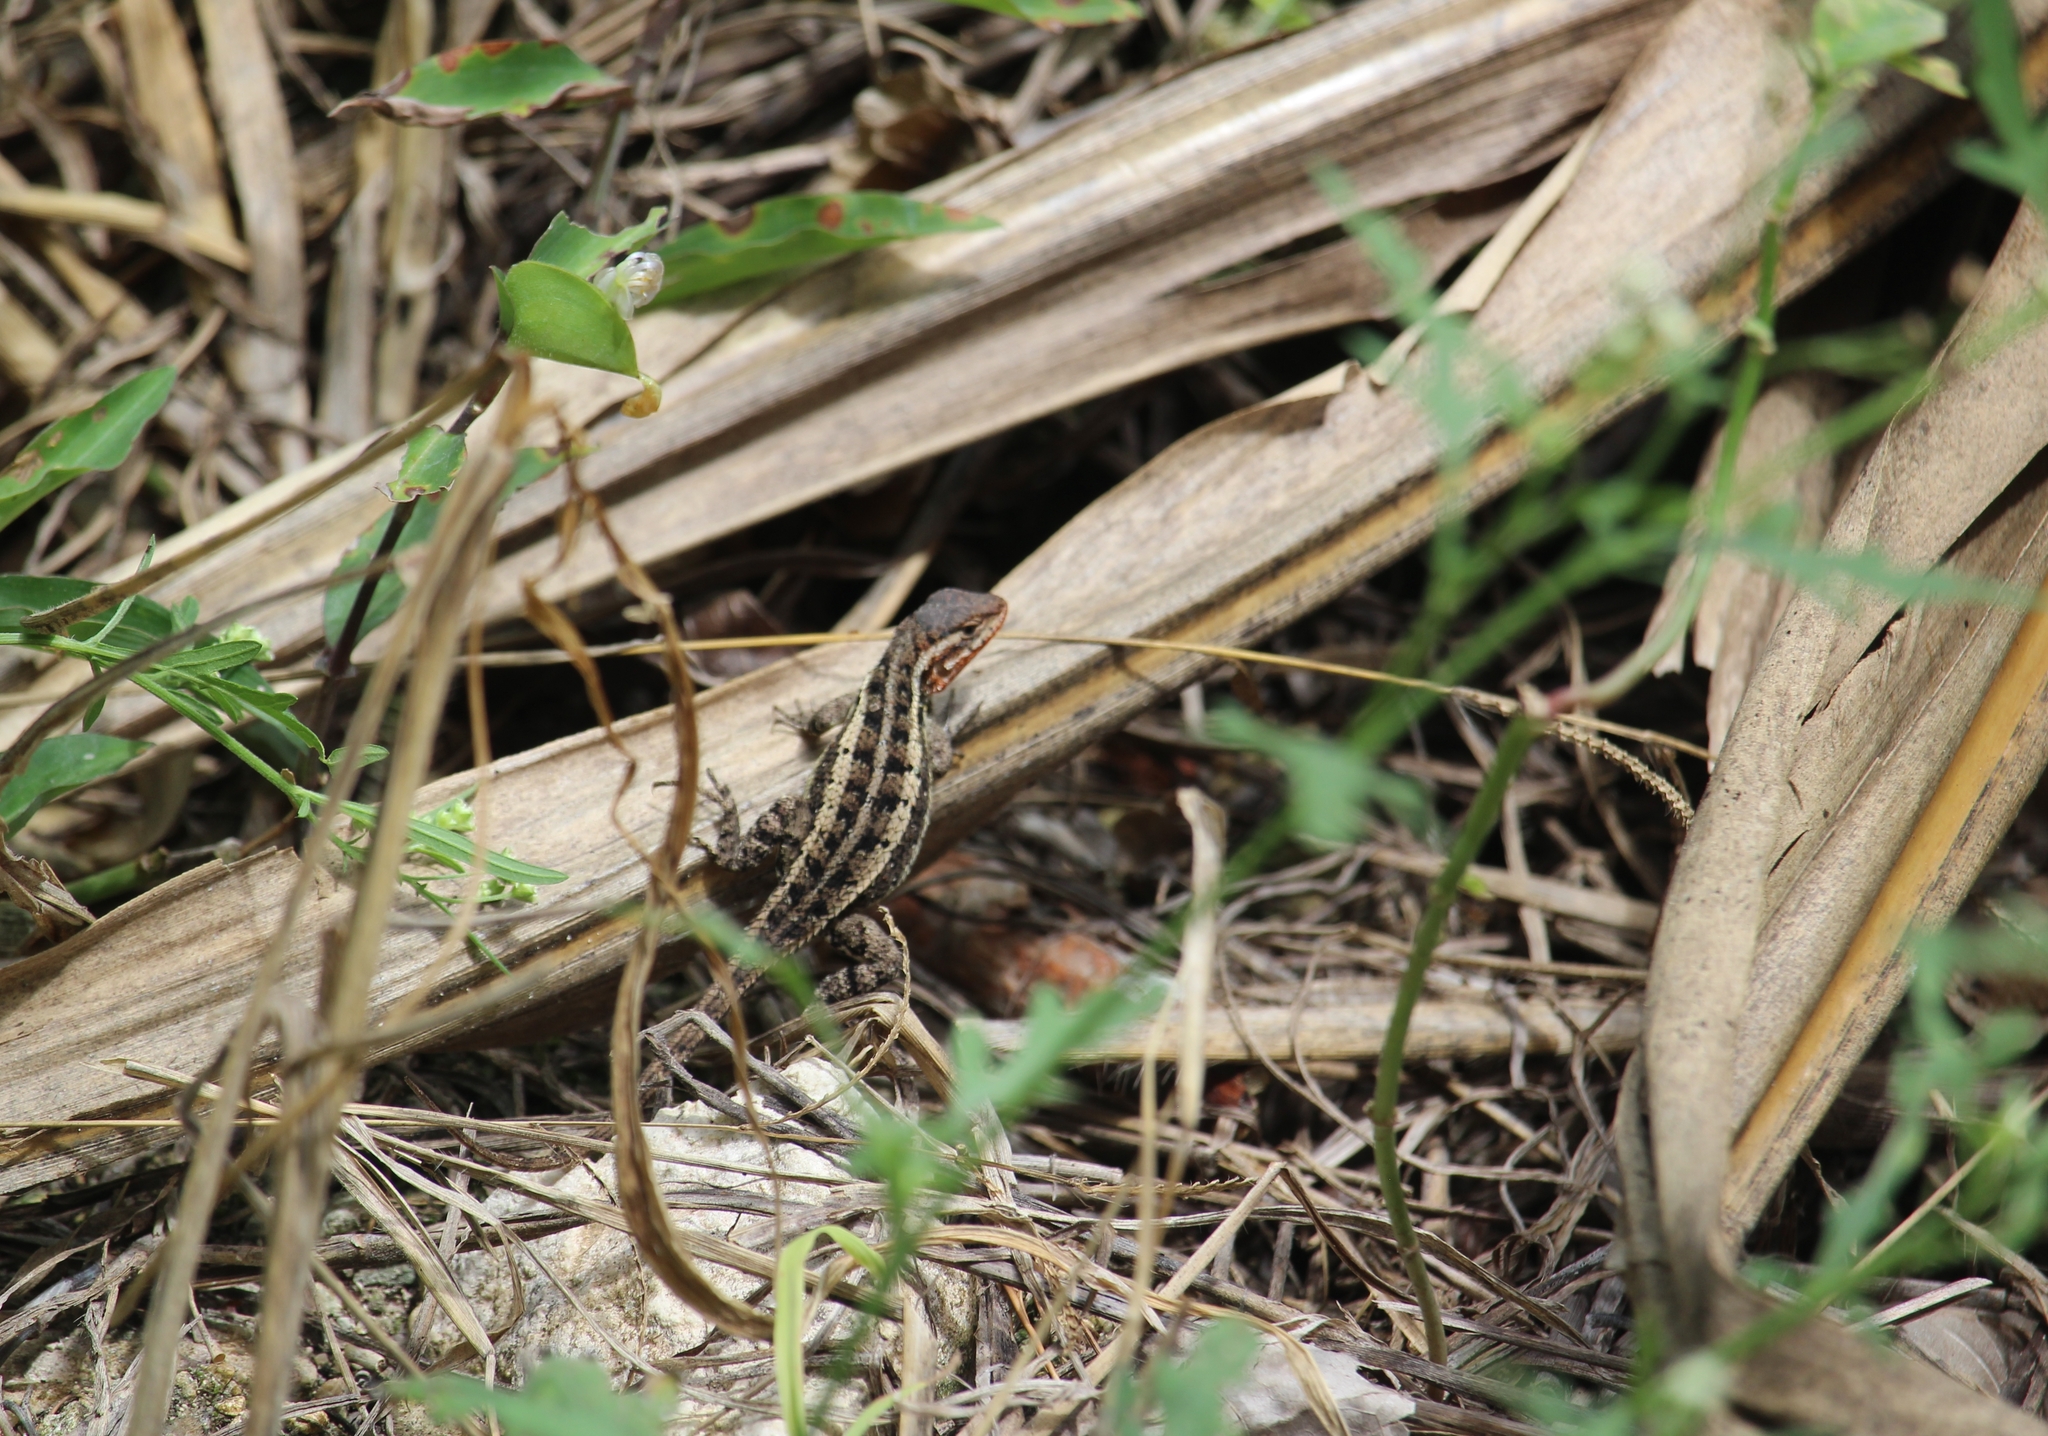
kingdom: Animalia
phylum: Chordata
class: Squamata
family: Phrynosomatidae
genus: Sceloporus
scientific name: Sceloporus teapensis
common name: Teapen rosebelly lizard
